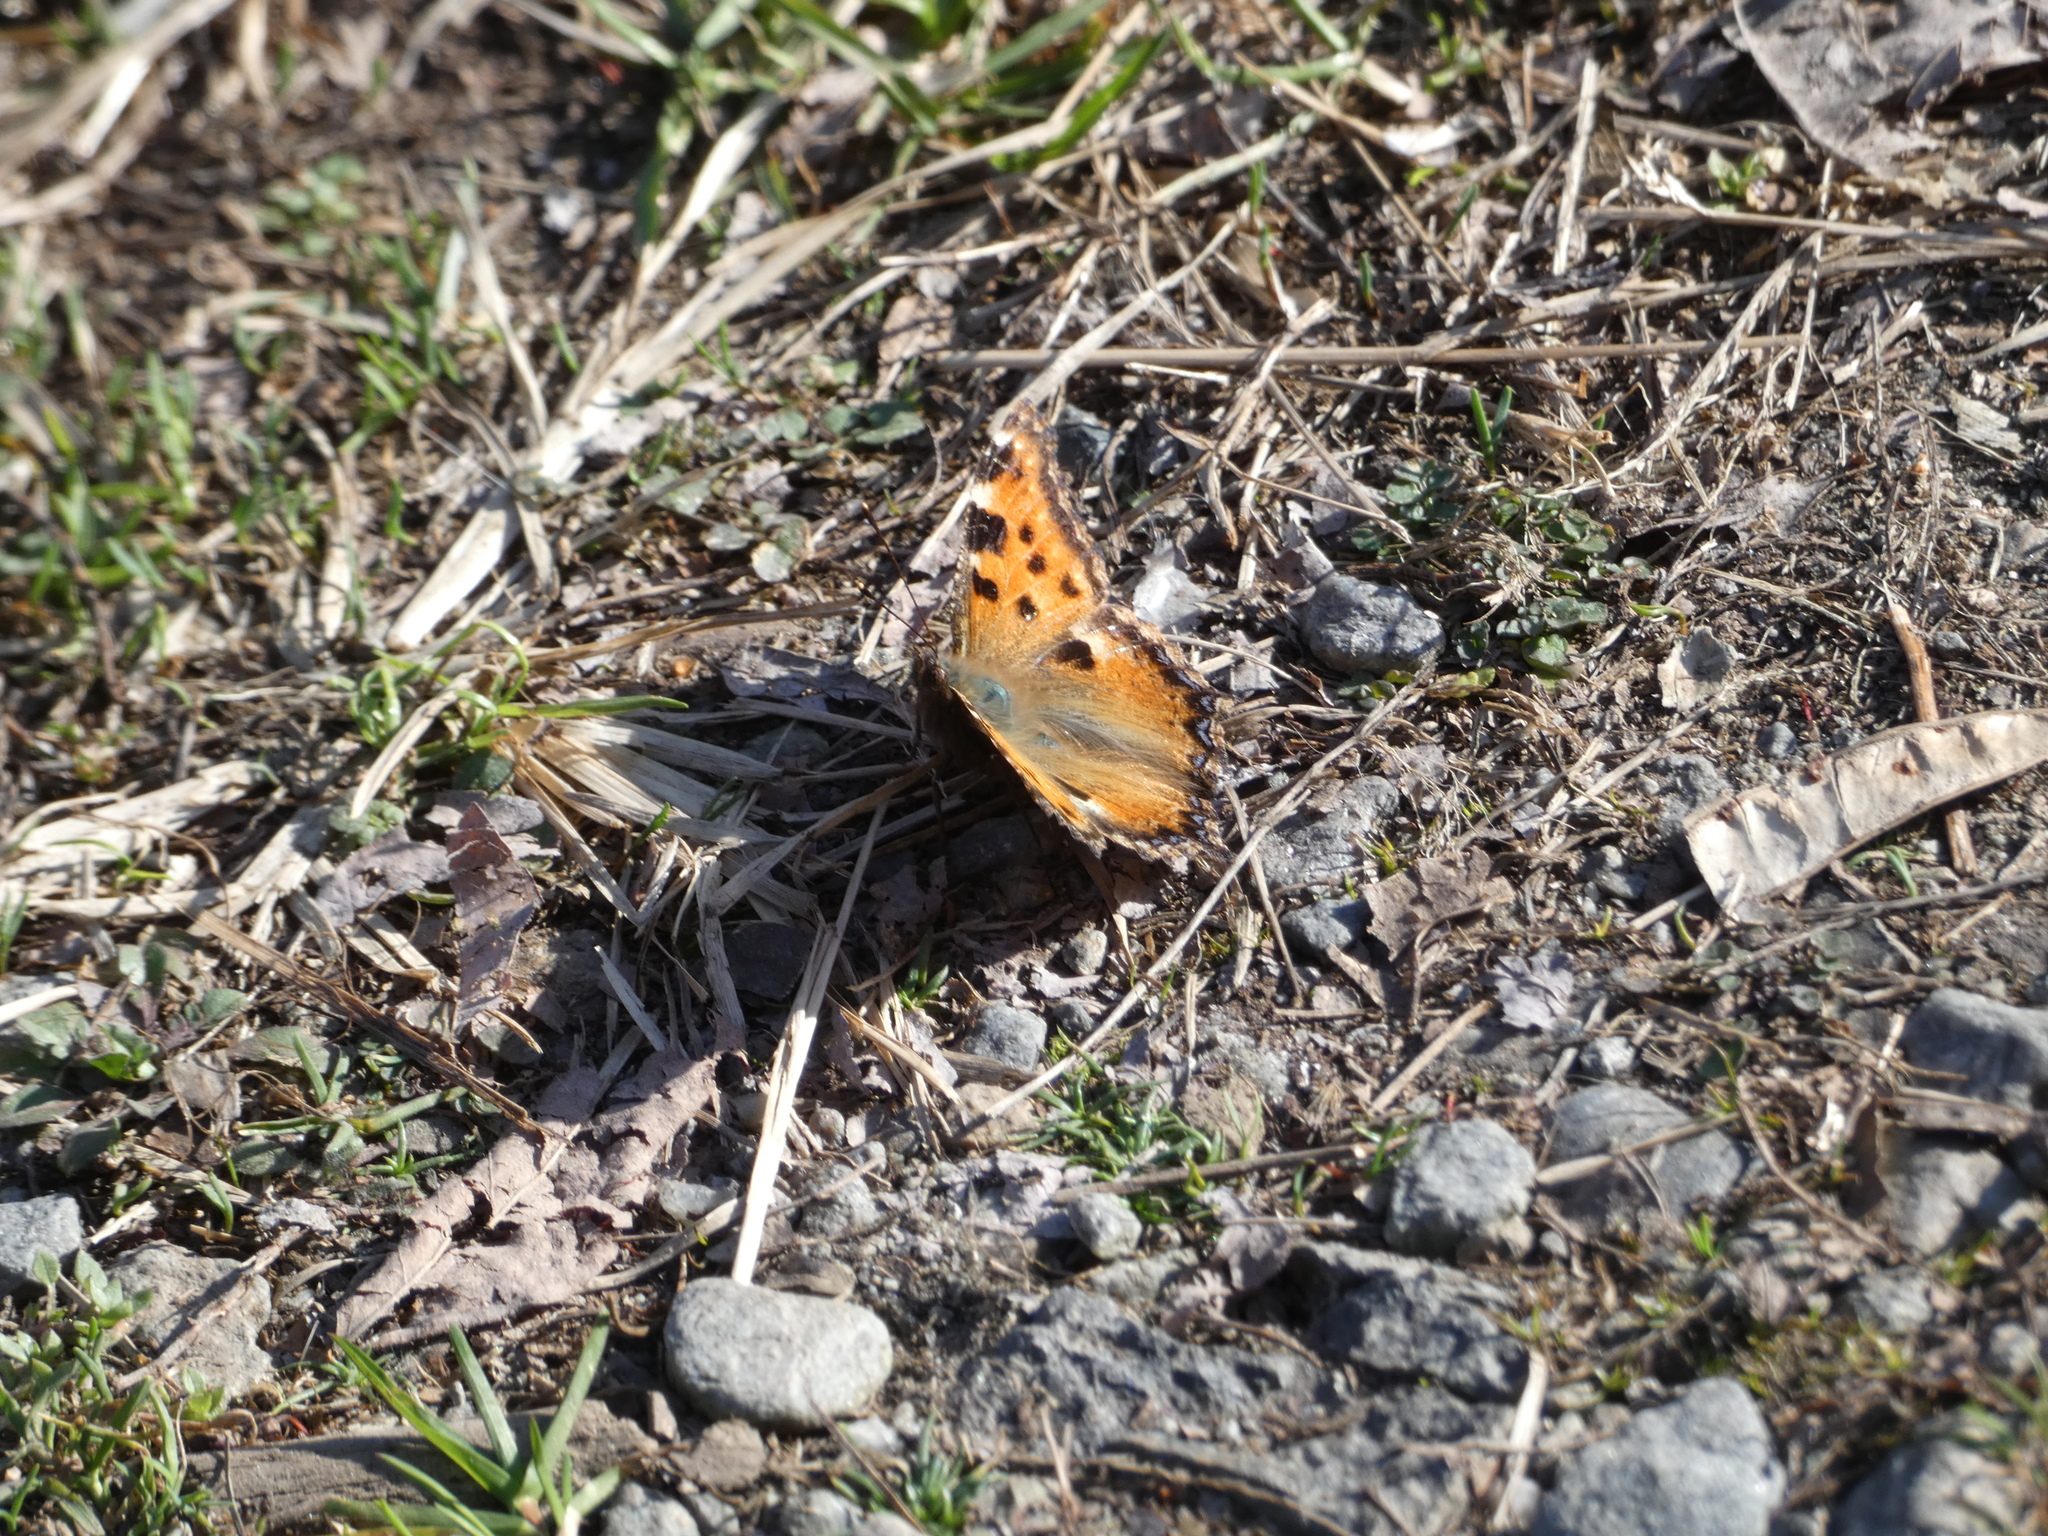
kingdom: Animalia
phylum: Arthropoda
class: Insecta
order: Lepidoptera
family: Nymphalidae
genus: Nymphalis
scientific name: Nymphalis polychloros
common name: Large tortoiseshell
